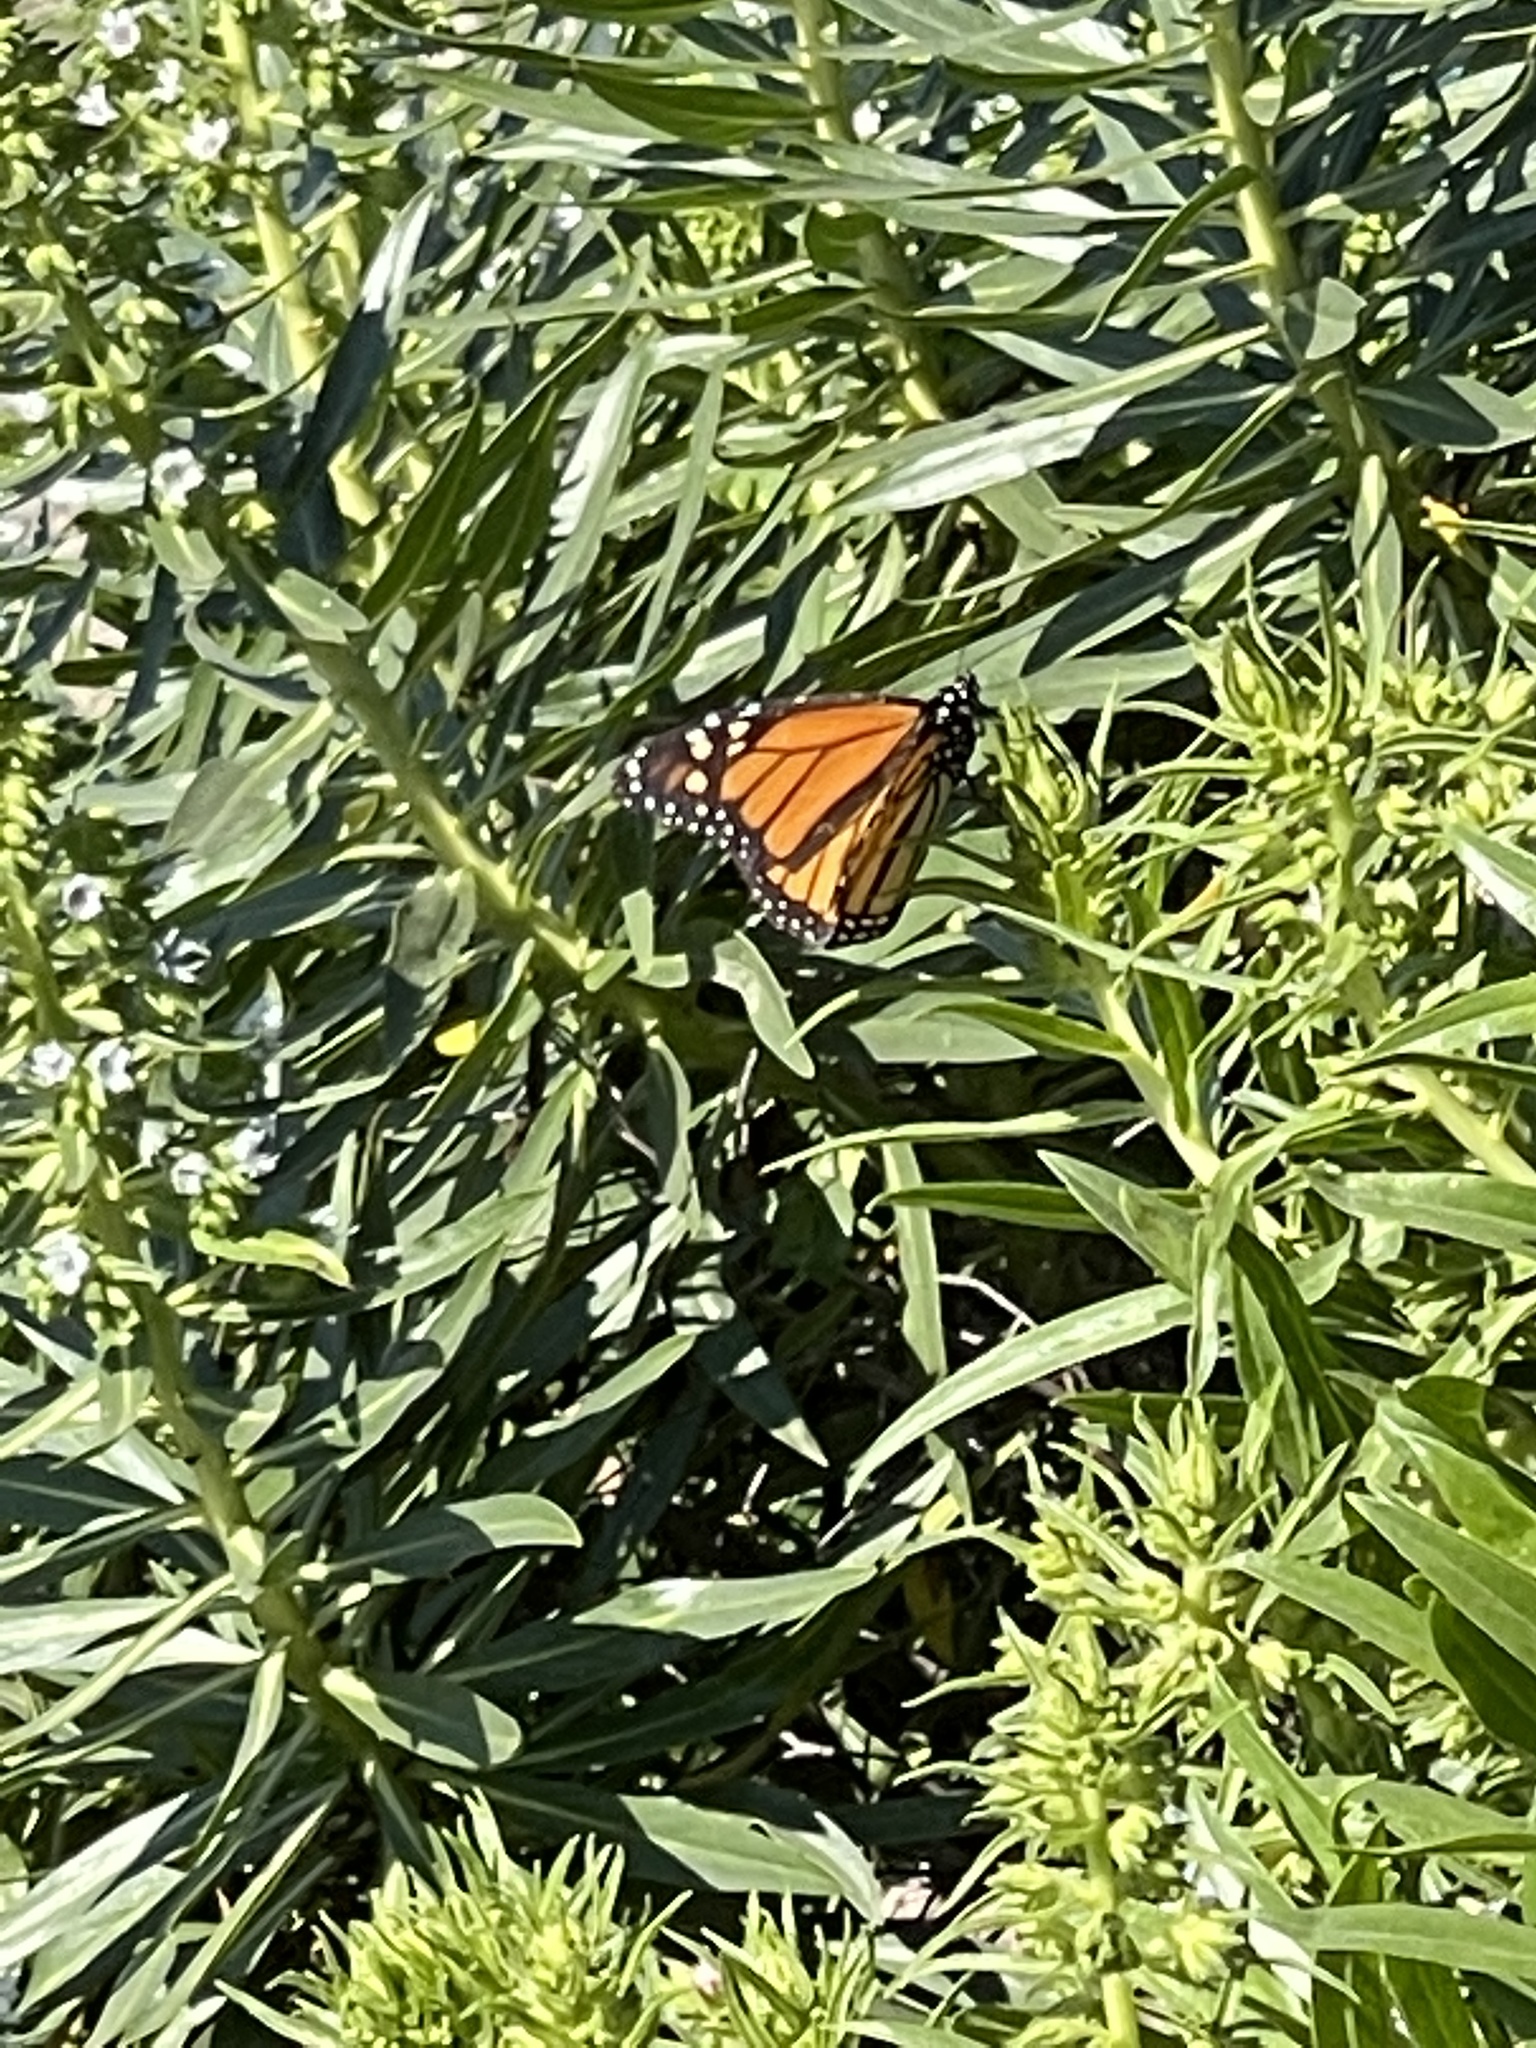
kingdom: Animalia
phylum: Arthropoda
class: Insecta
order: Lepidoptera
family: Nymphalidae
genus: Danaus
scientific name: Danaus plexippus
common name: Monarch
